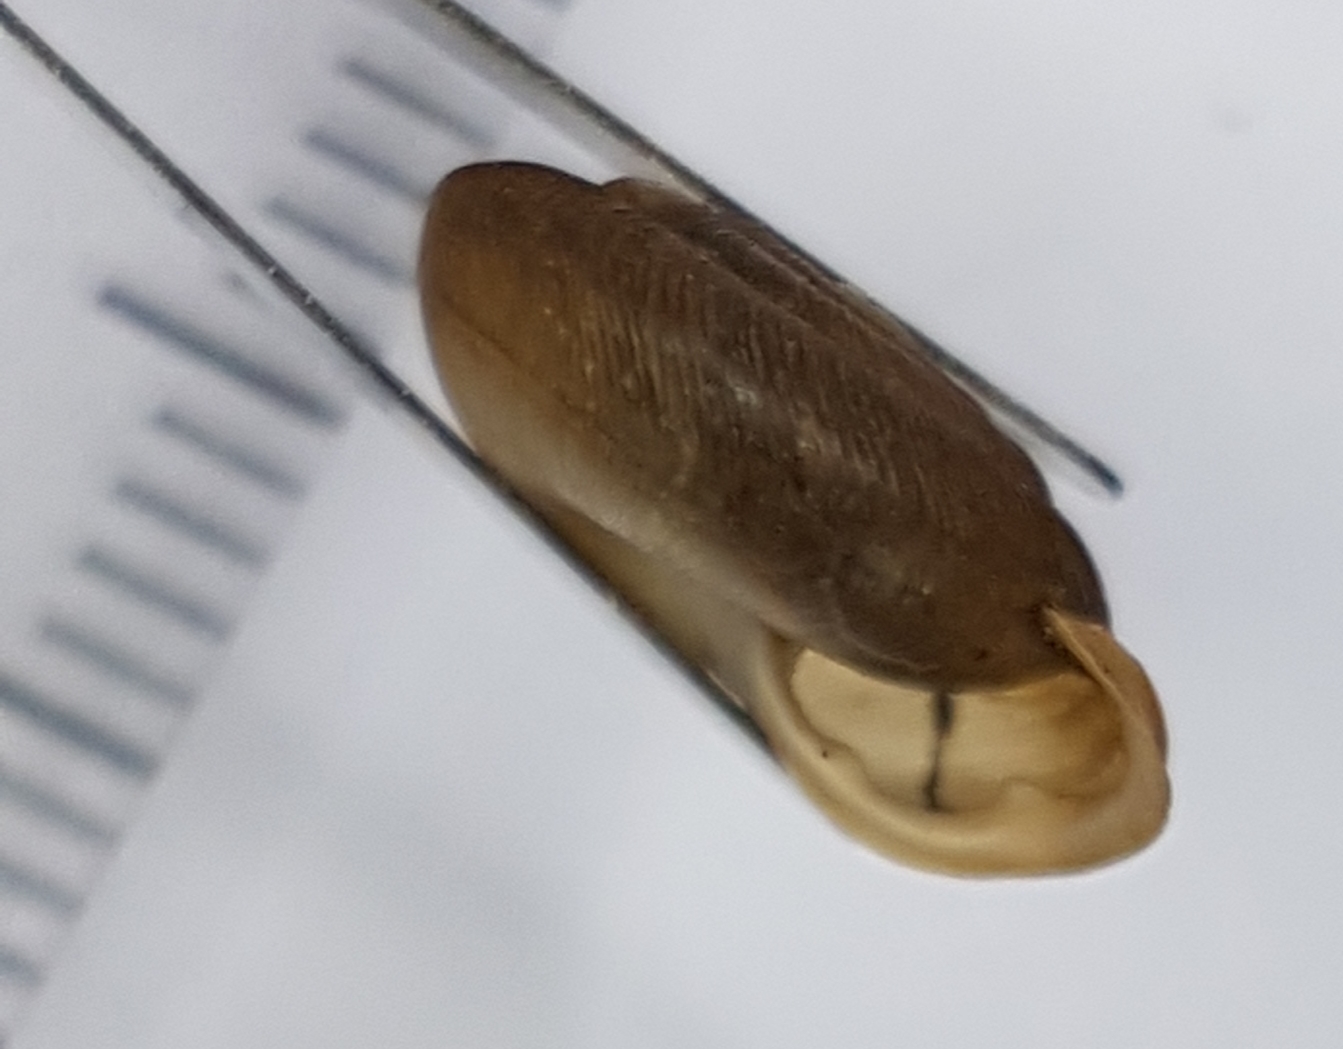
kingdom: Animalia
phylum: Mollusca
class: Gastropoda
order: Stylommatophora
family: Trissexodontidae
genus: Oestophora
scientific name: Oestophora barbella
